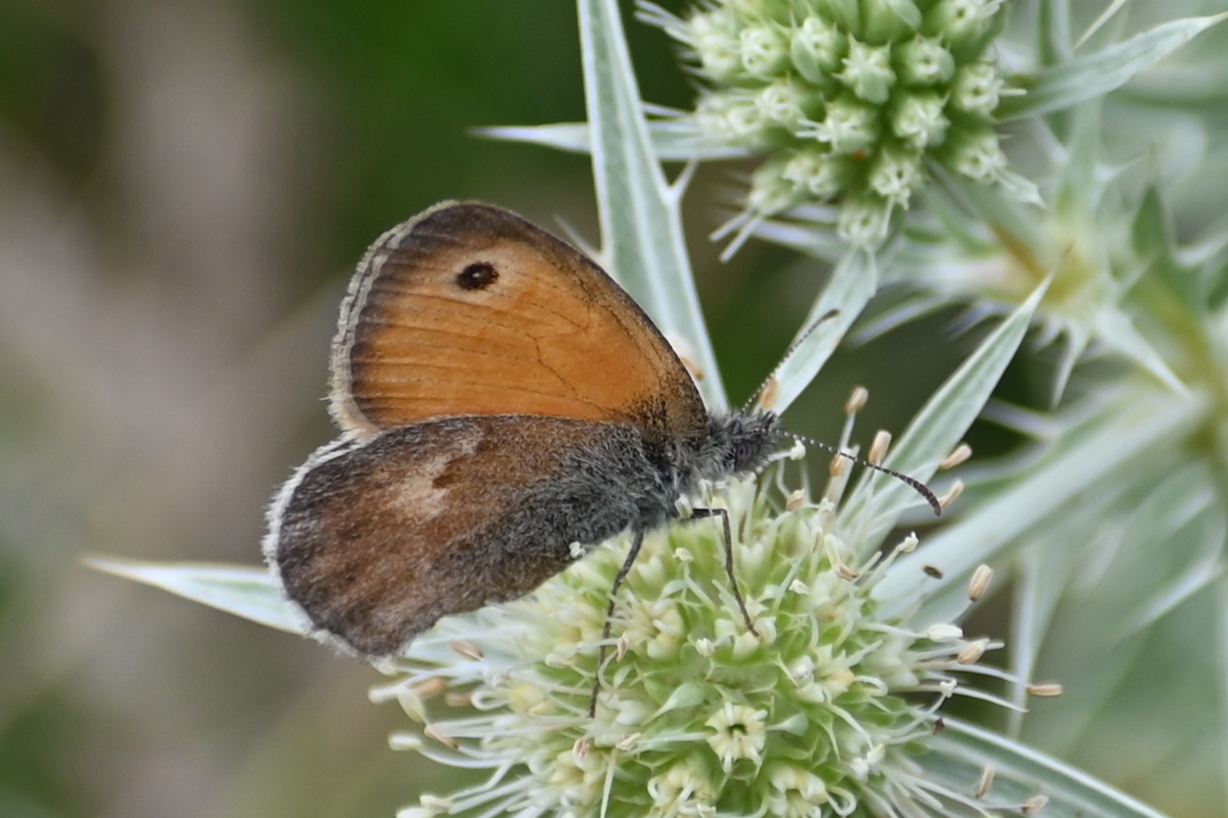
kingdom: Animalia
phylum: Arthropoda
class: Insecta
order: Lepidoptera
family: Nymphalidae
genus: Coenonympha
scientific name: Coenonympha pamphilus
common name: Small heath
